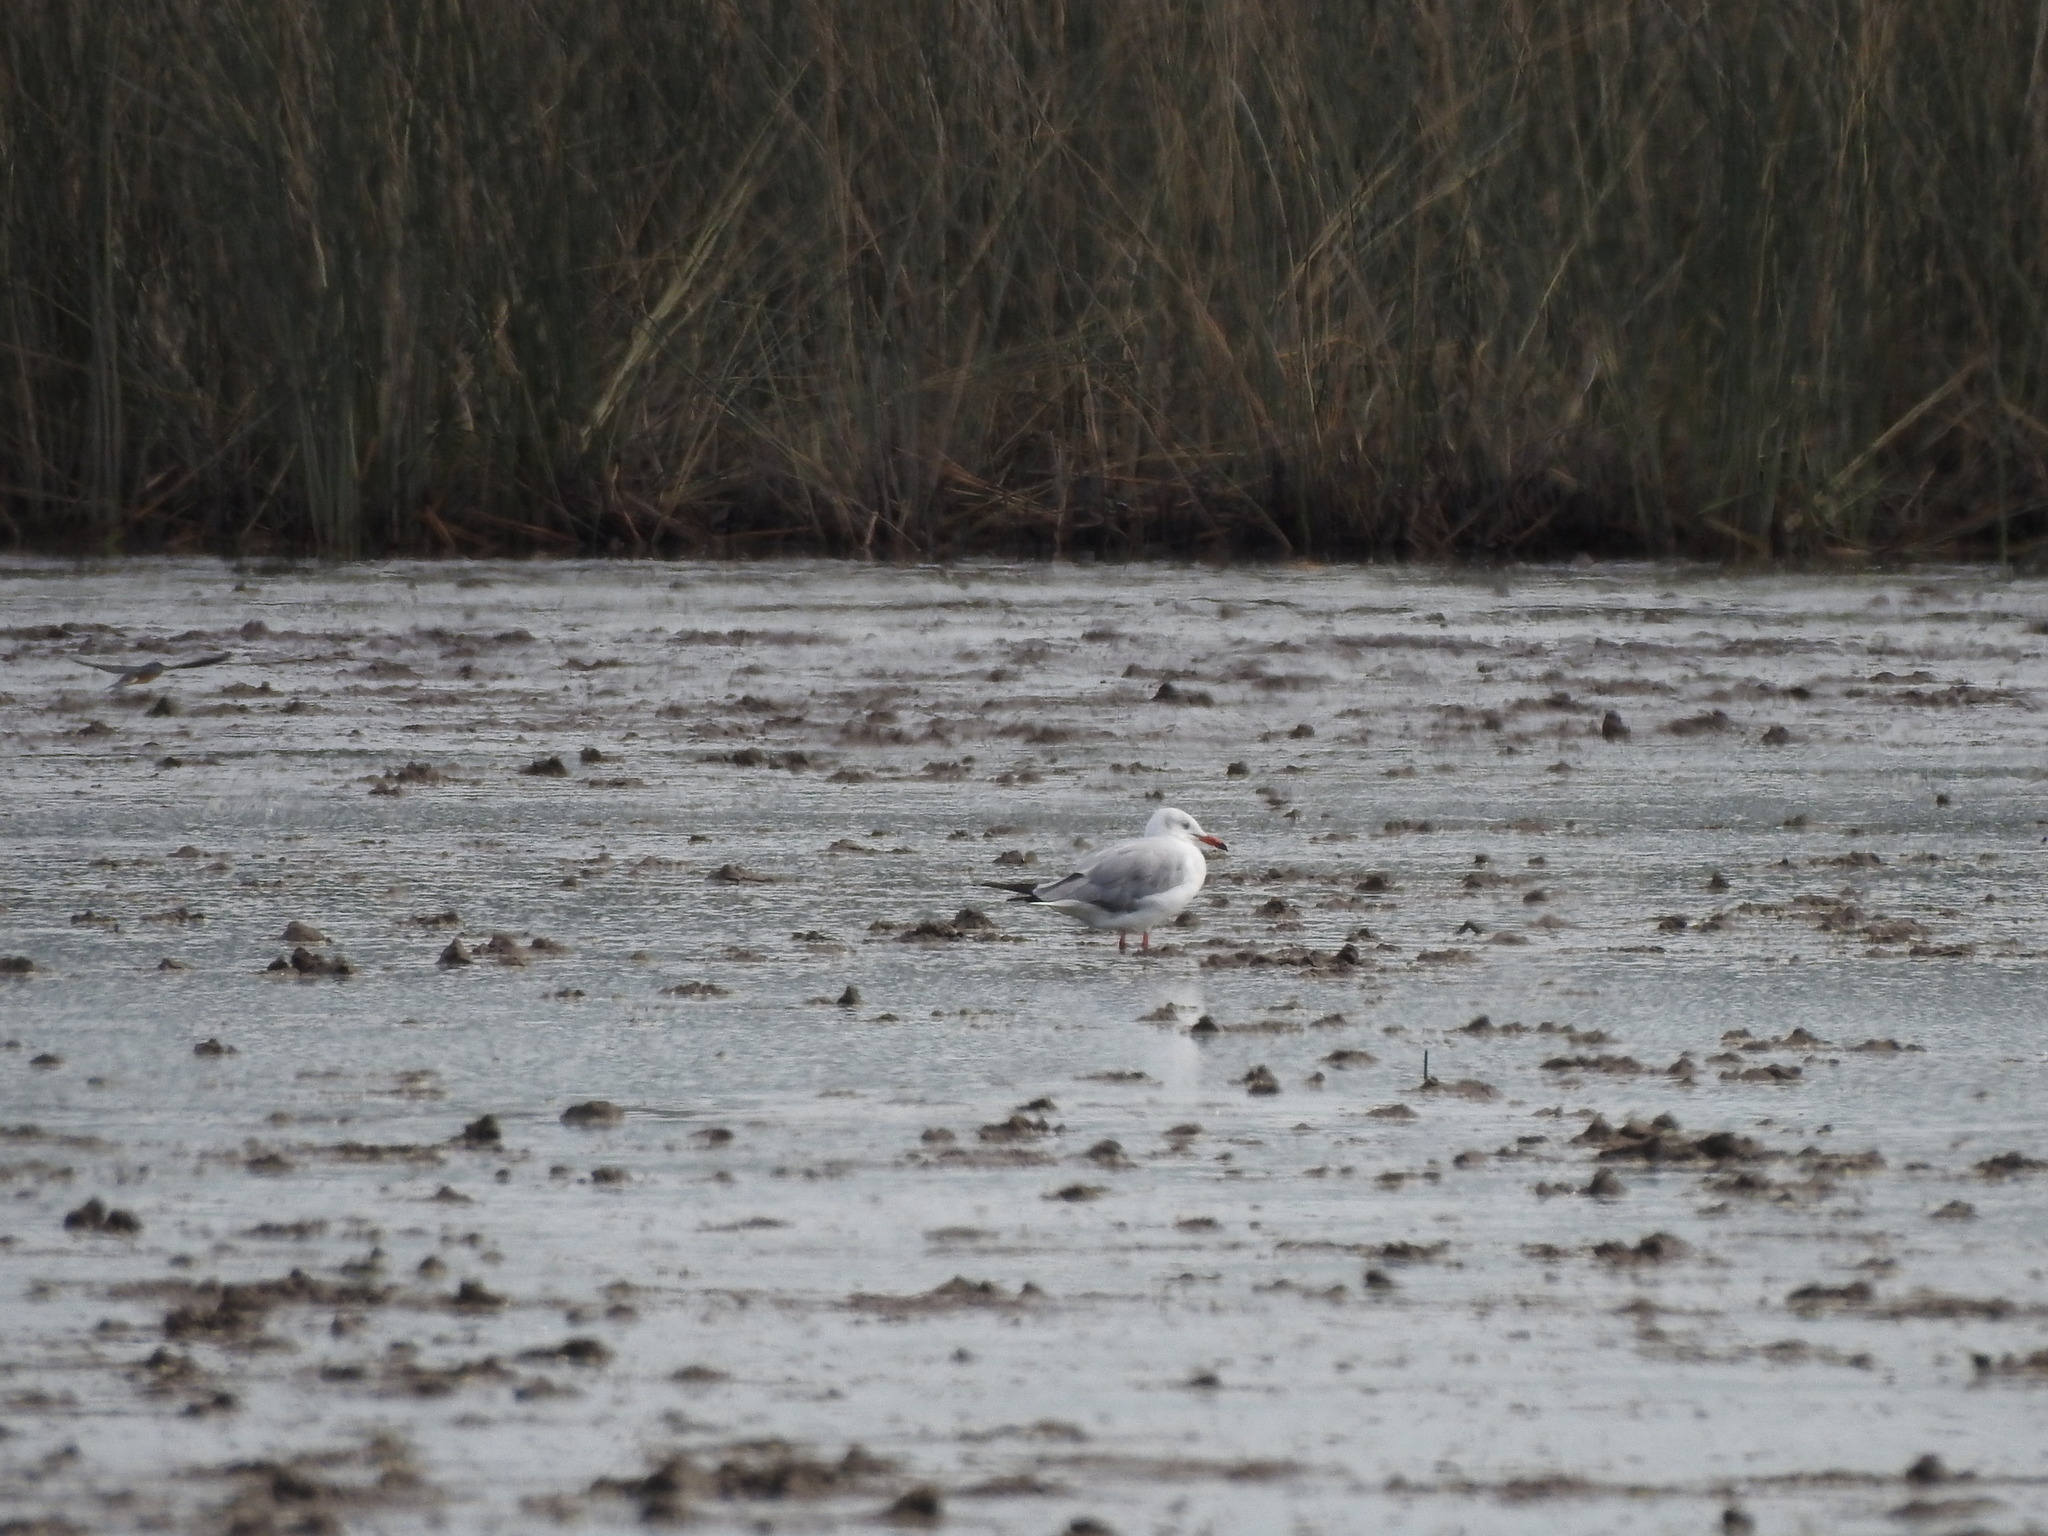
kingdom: Animalia
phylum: Chordata
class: Aves
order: Charadriiformes
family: Laridae
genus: Chroicocephalus
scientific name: Chroicocephalus cirrocephalus
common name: Grey-headed gull
